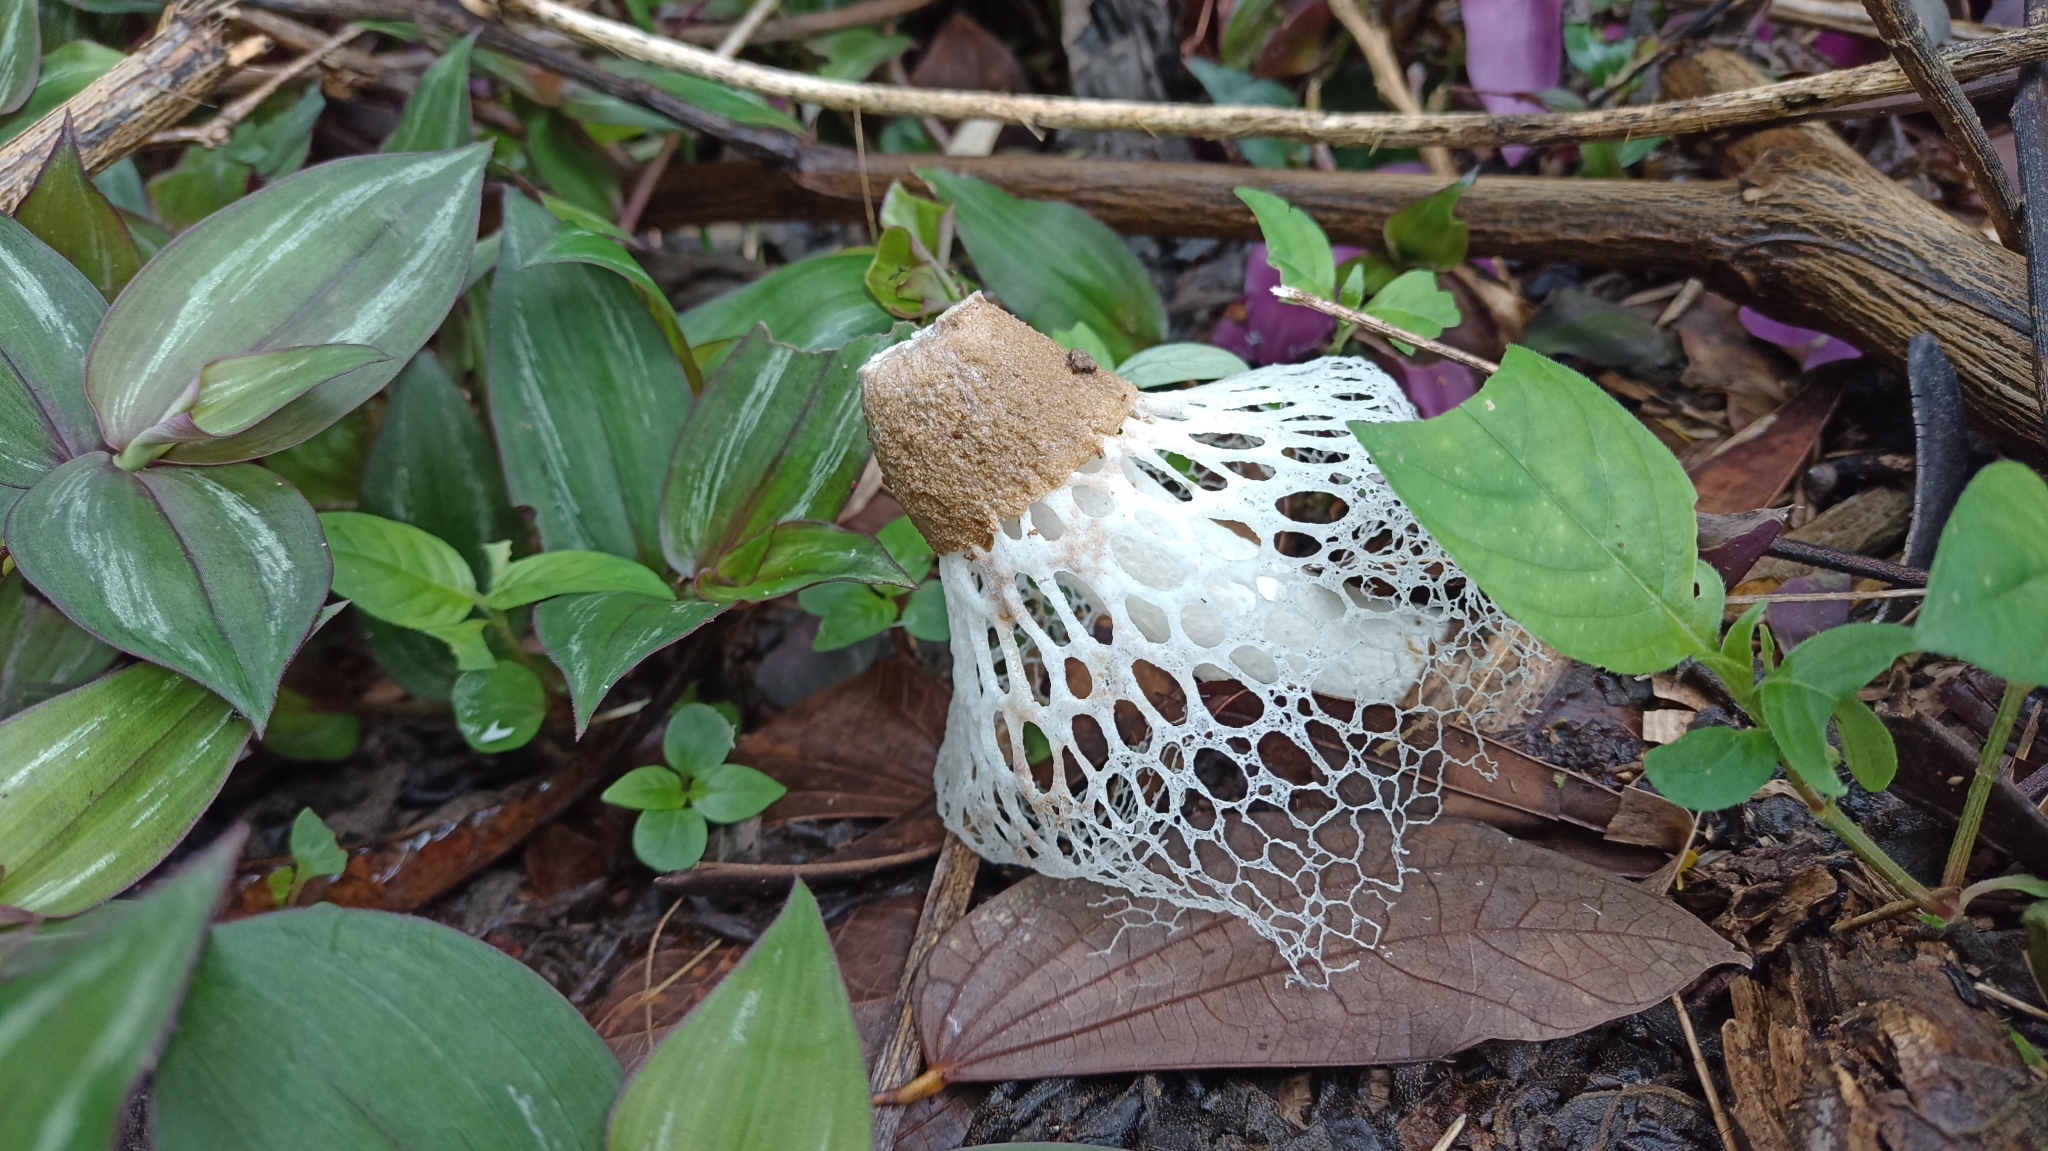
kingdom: Fungi
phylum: Basidiomycota
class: Agaricomycetes
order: Phallales
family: Phallaceae
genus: Phallus
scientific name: Phallus merulinus
